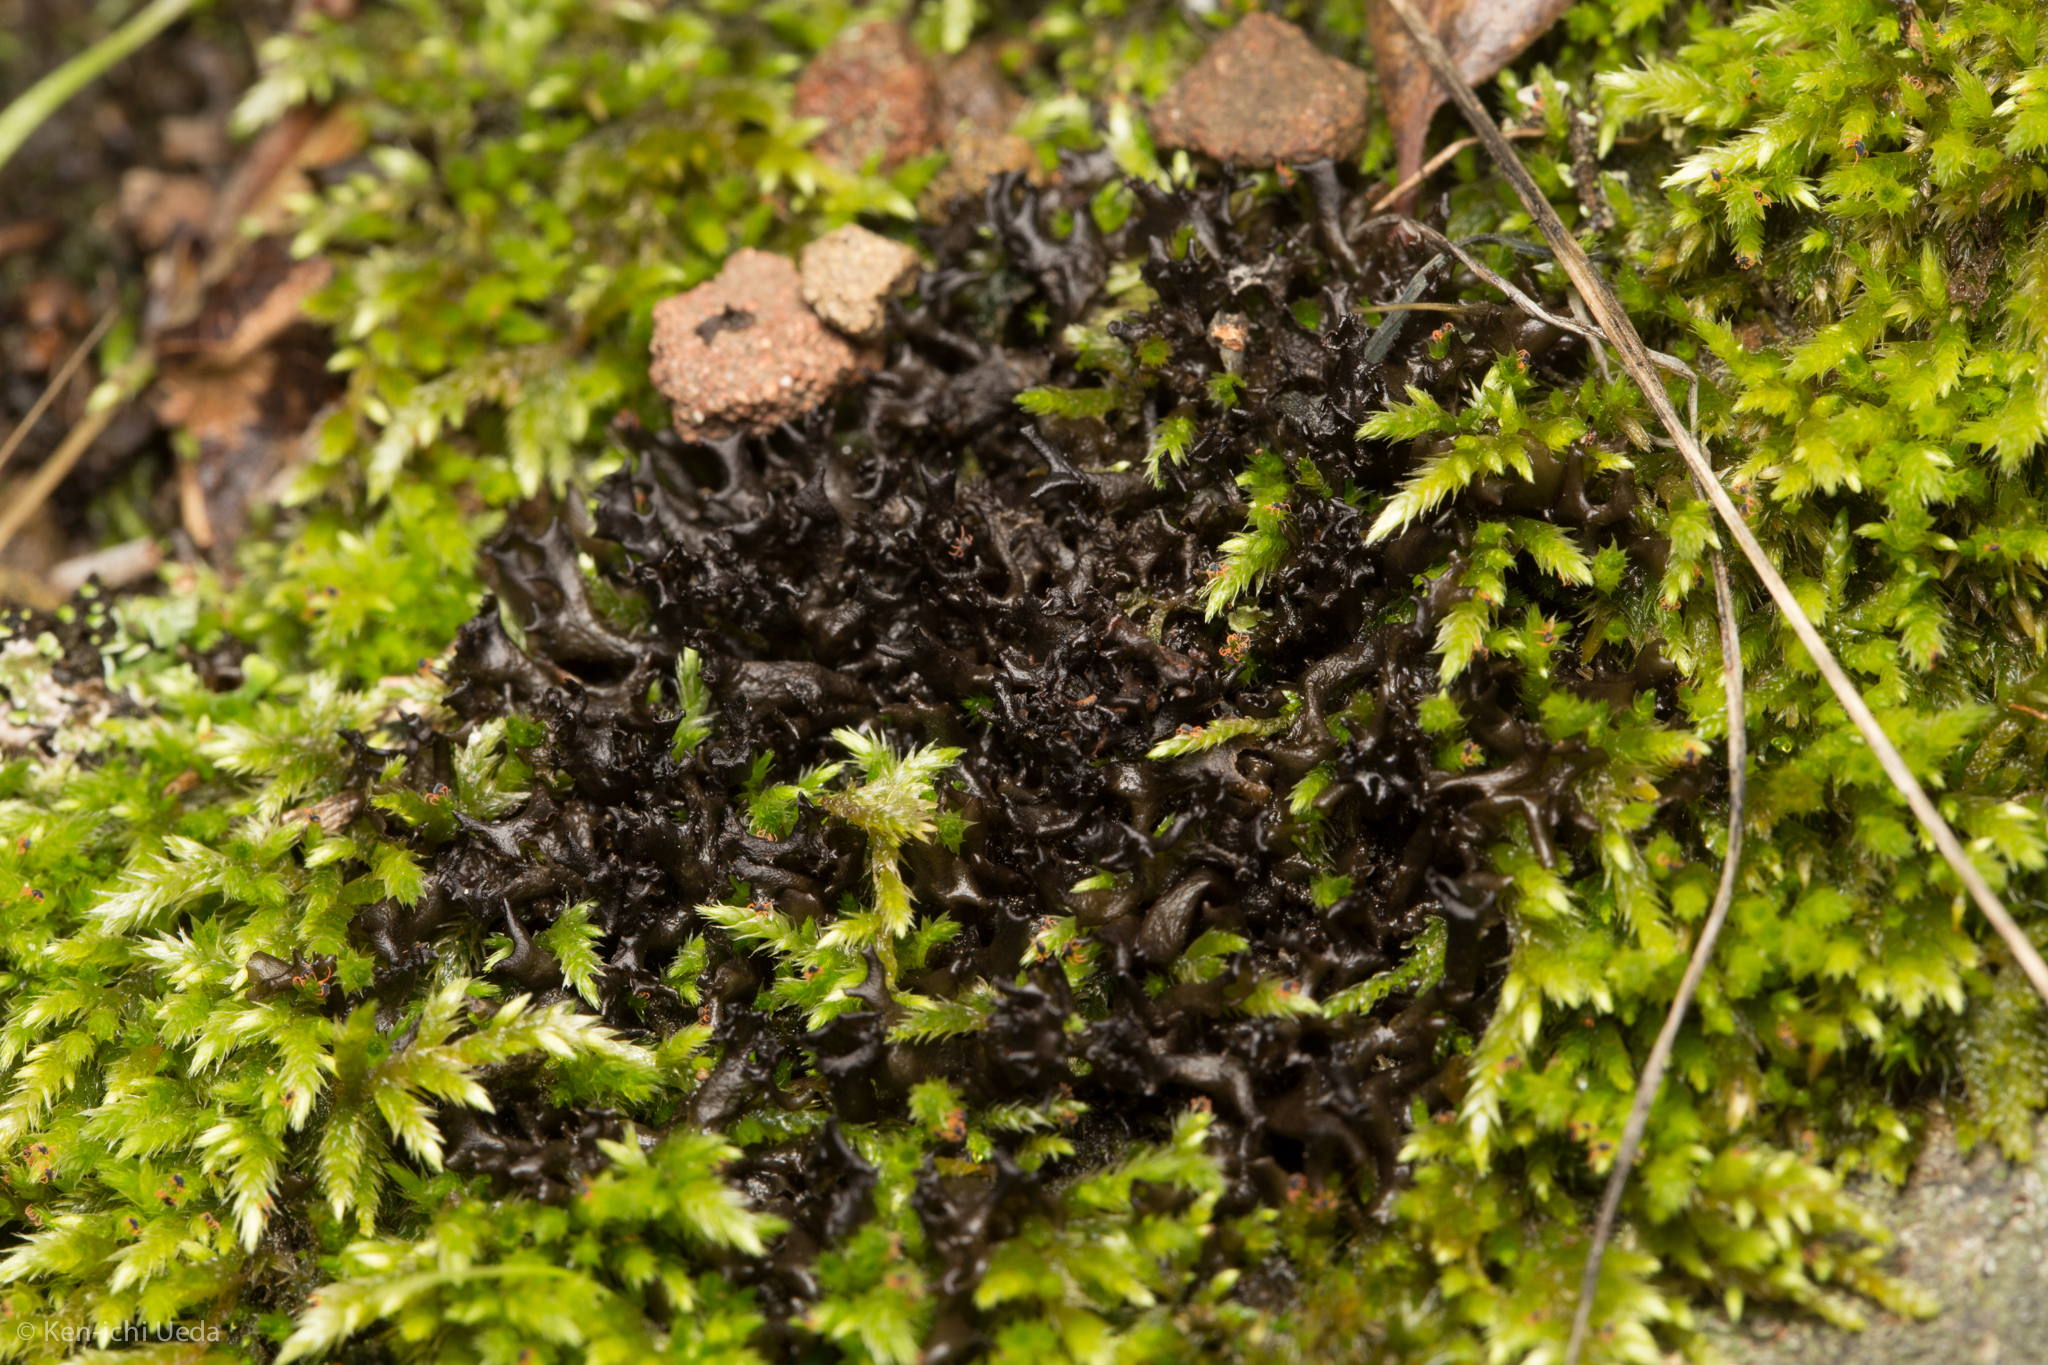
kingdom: Fungi
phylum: Ascomycota
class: Lecanoromycetes
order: Peltigerales
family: Collemataceae
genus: Scytinium
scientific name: Scytinium palmatum
